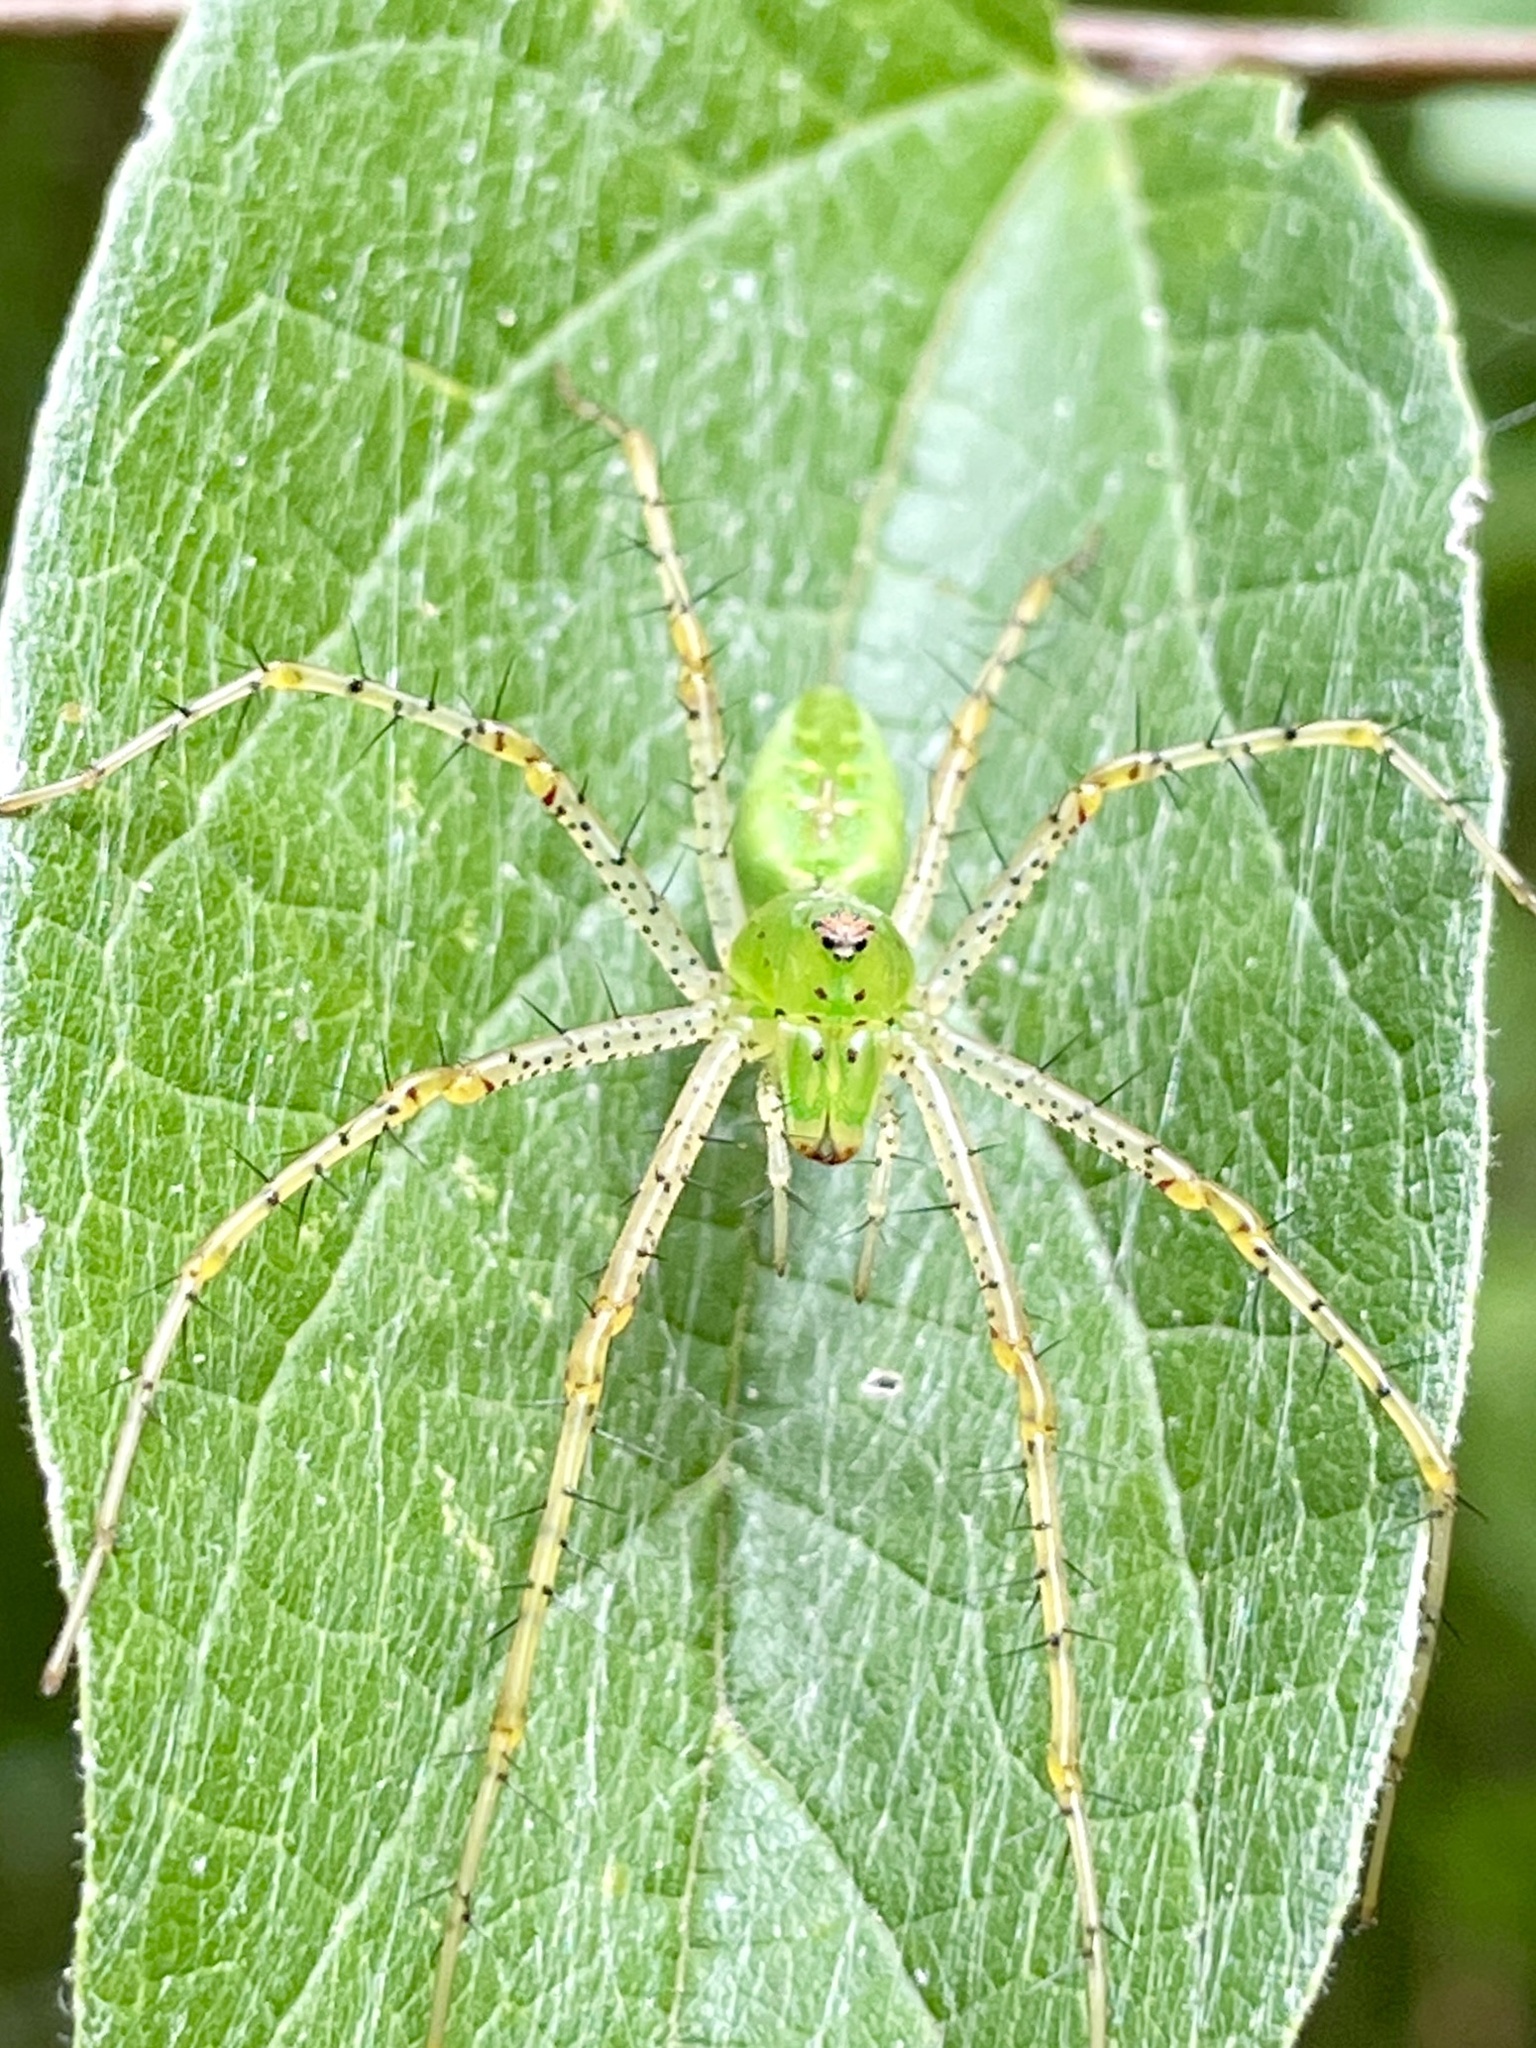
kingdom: Animalia
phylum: Arthropoda
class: Arachnida
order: Araneae
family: Oxyopidae
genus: Peucetia
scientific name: Peucetia viridans
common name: Lynx spiders
